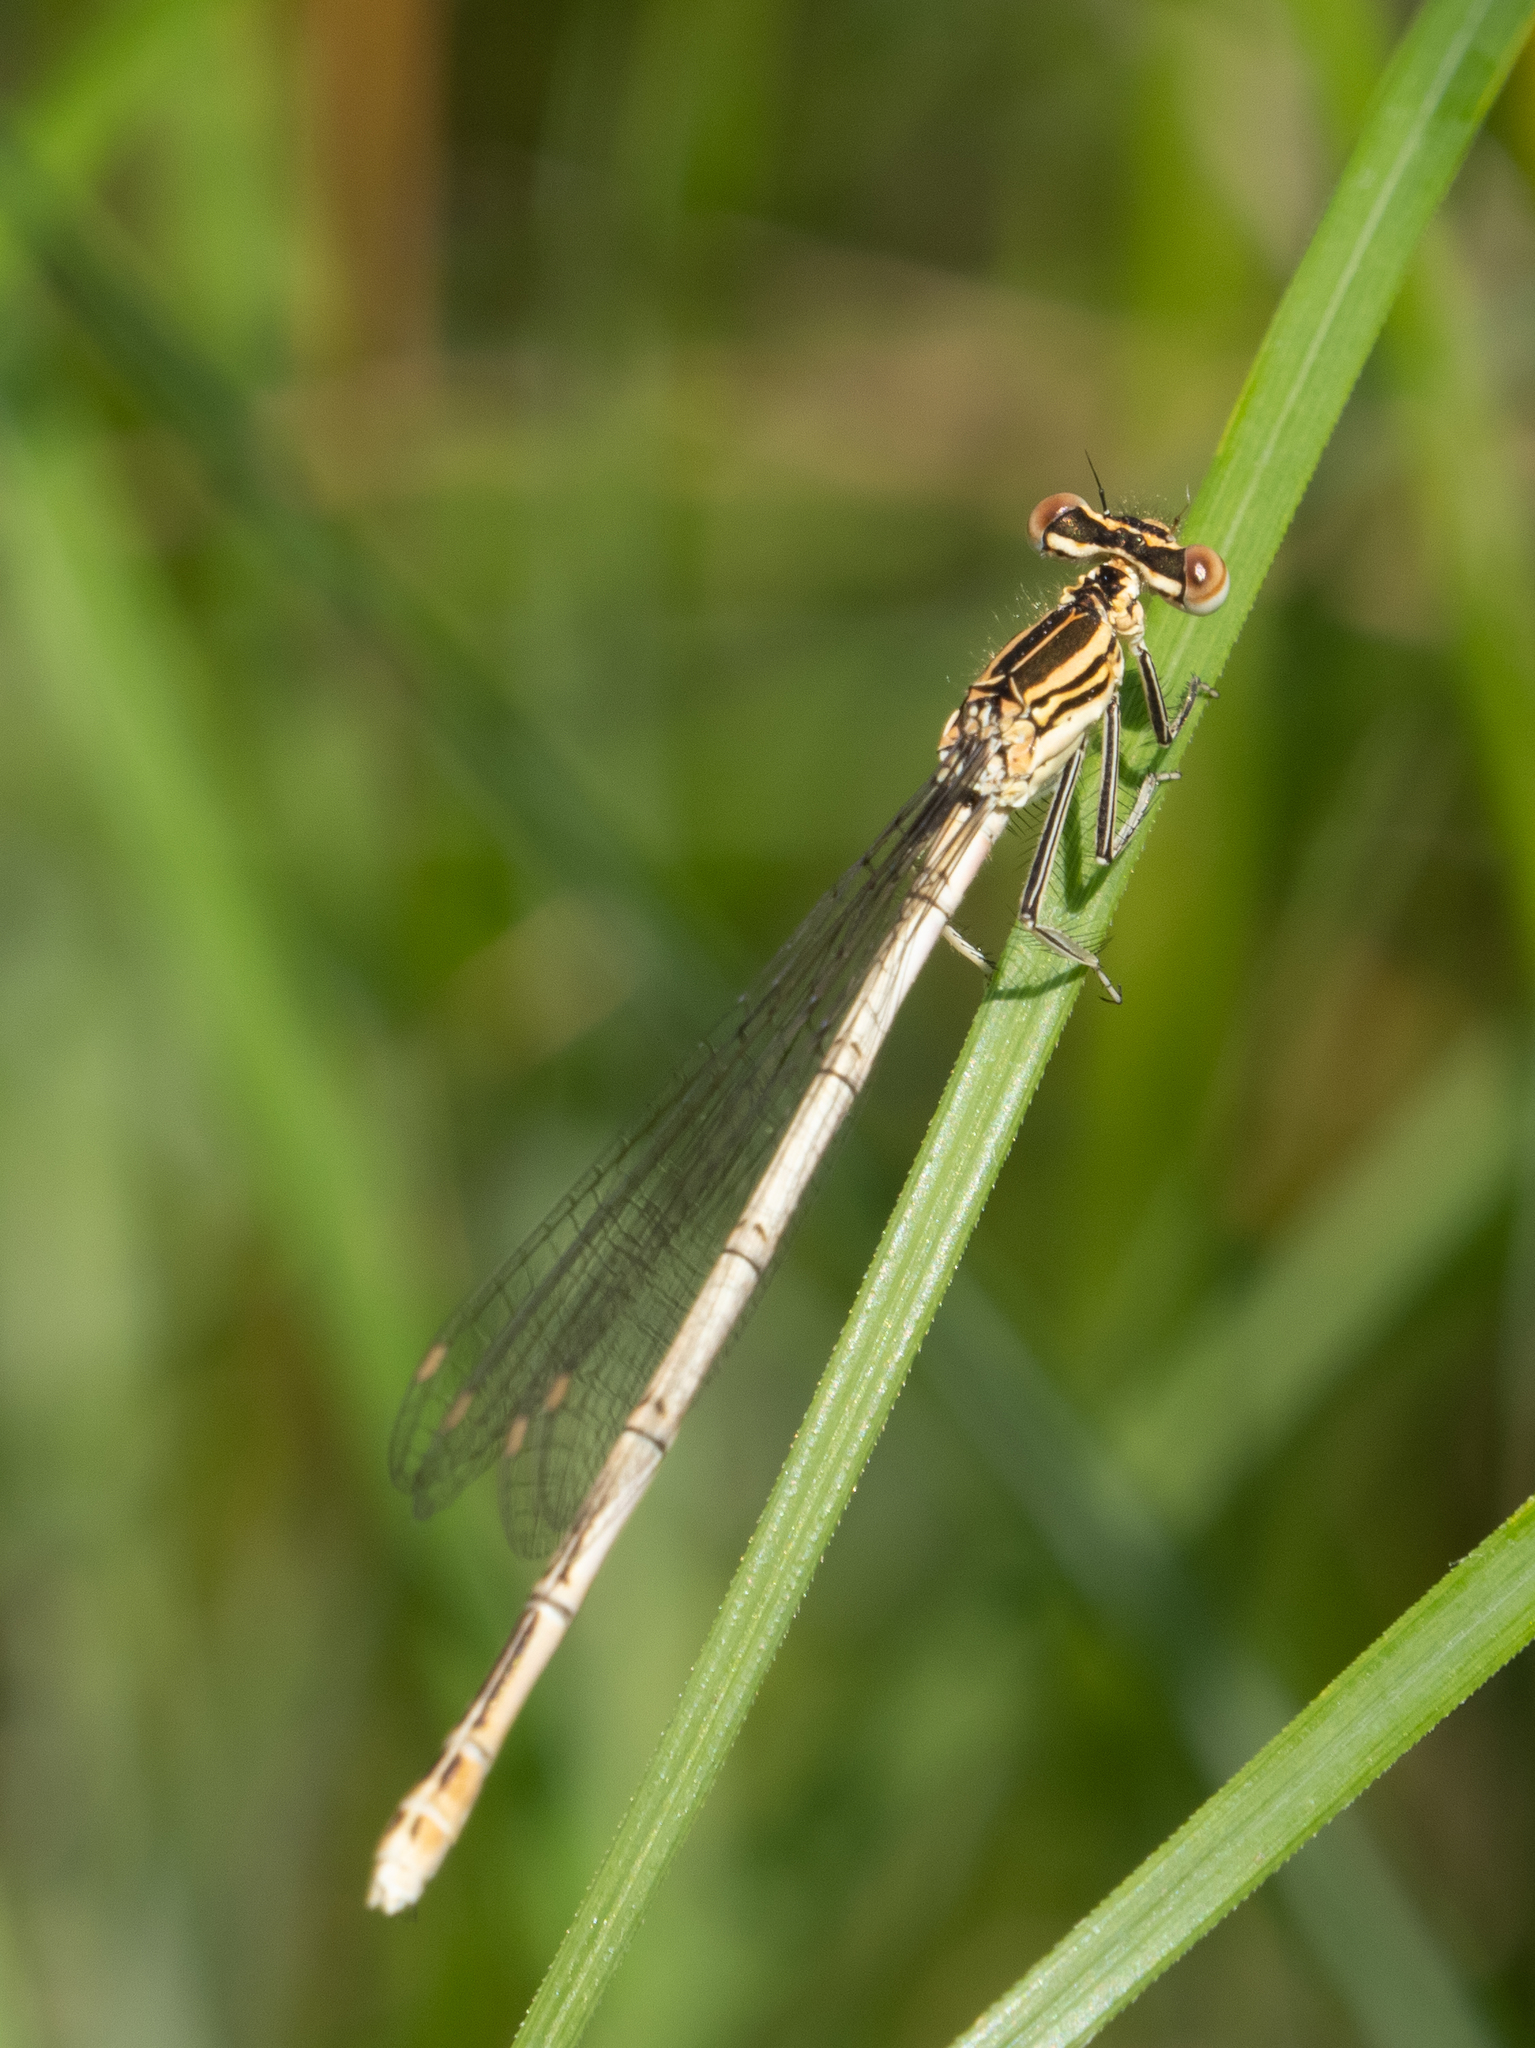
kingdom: Animalia
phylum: Arthropoda
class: Insecta
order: Odonata
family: Platycnemididae
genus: Platycnemis
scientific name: Platycnemis pennipes
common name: White-legged damselfly
